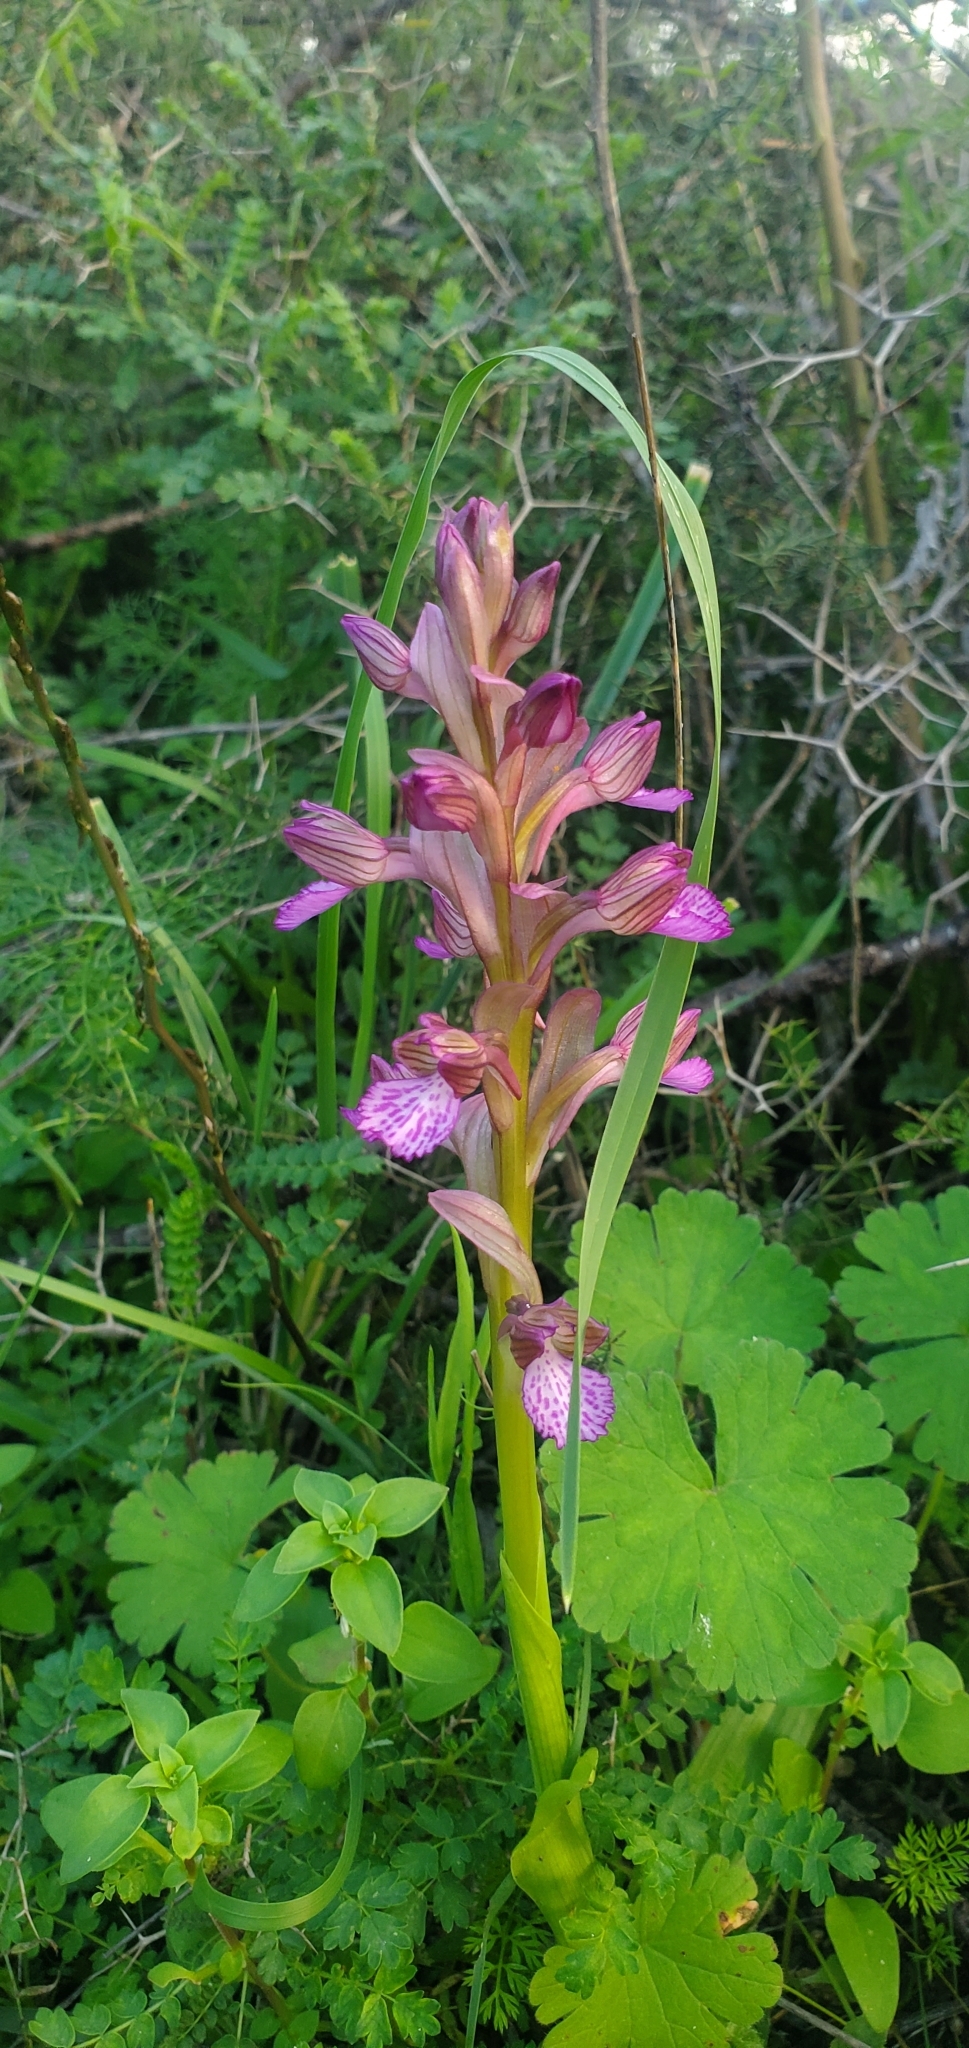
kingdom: Plantae
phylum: Tracheophyta
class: Liliopsida
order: Asparagales
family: Orchidaceae
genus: Anacamptis
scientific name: Anacamptis papilionacea
